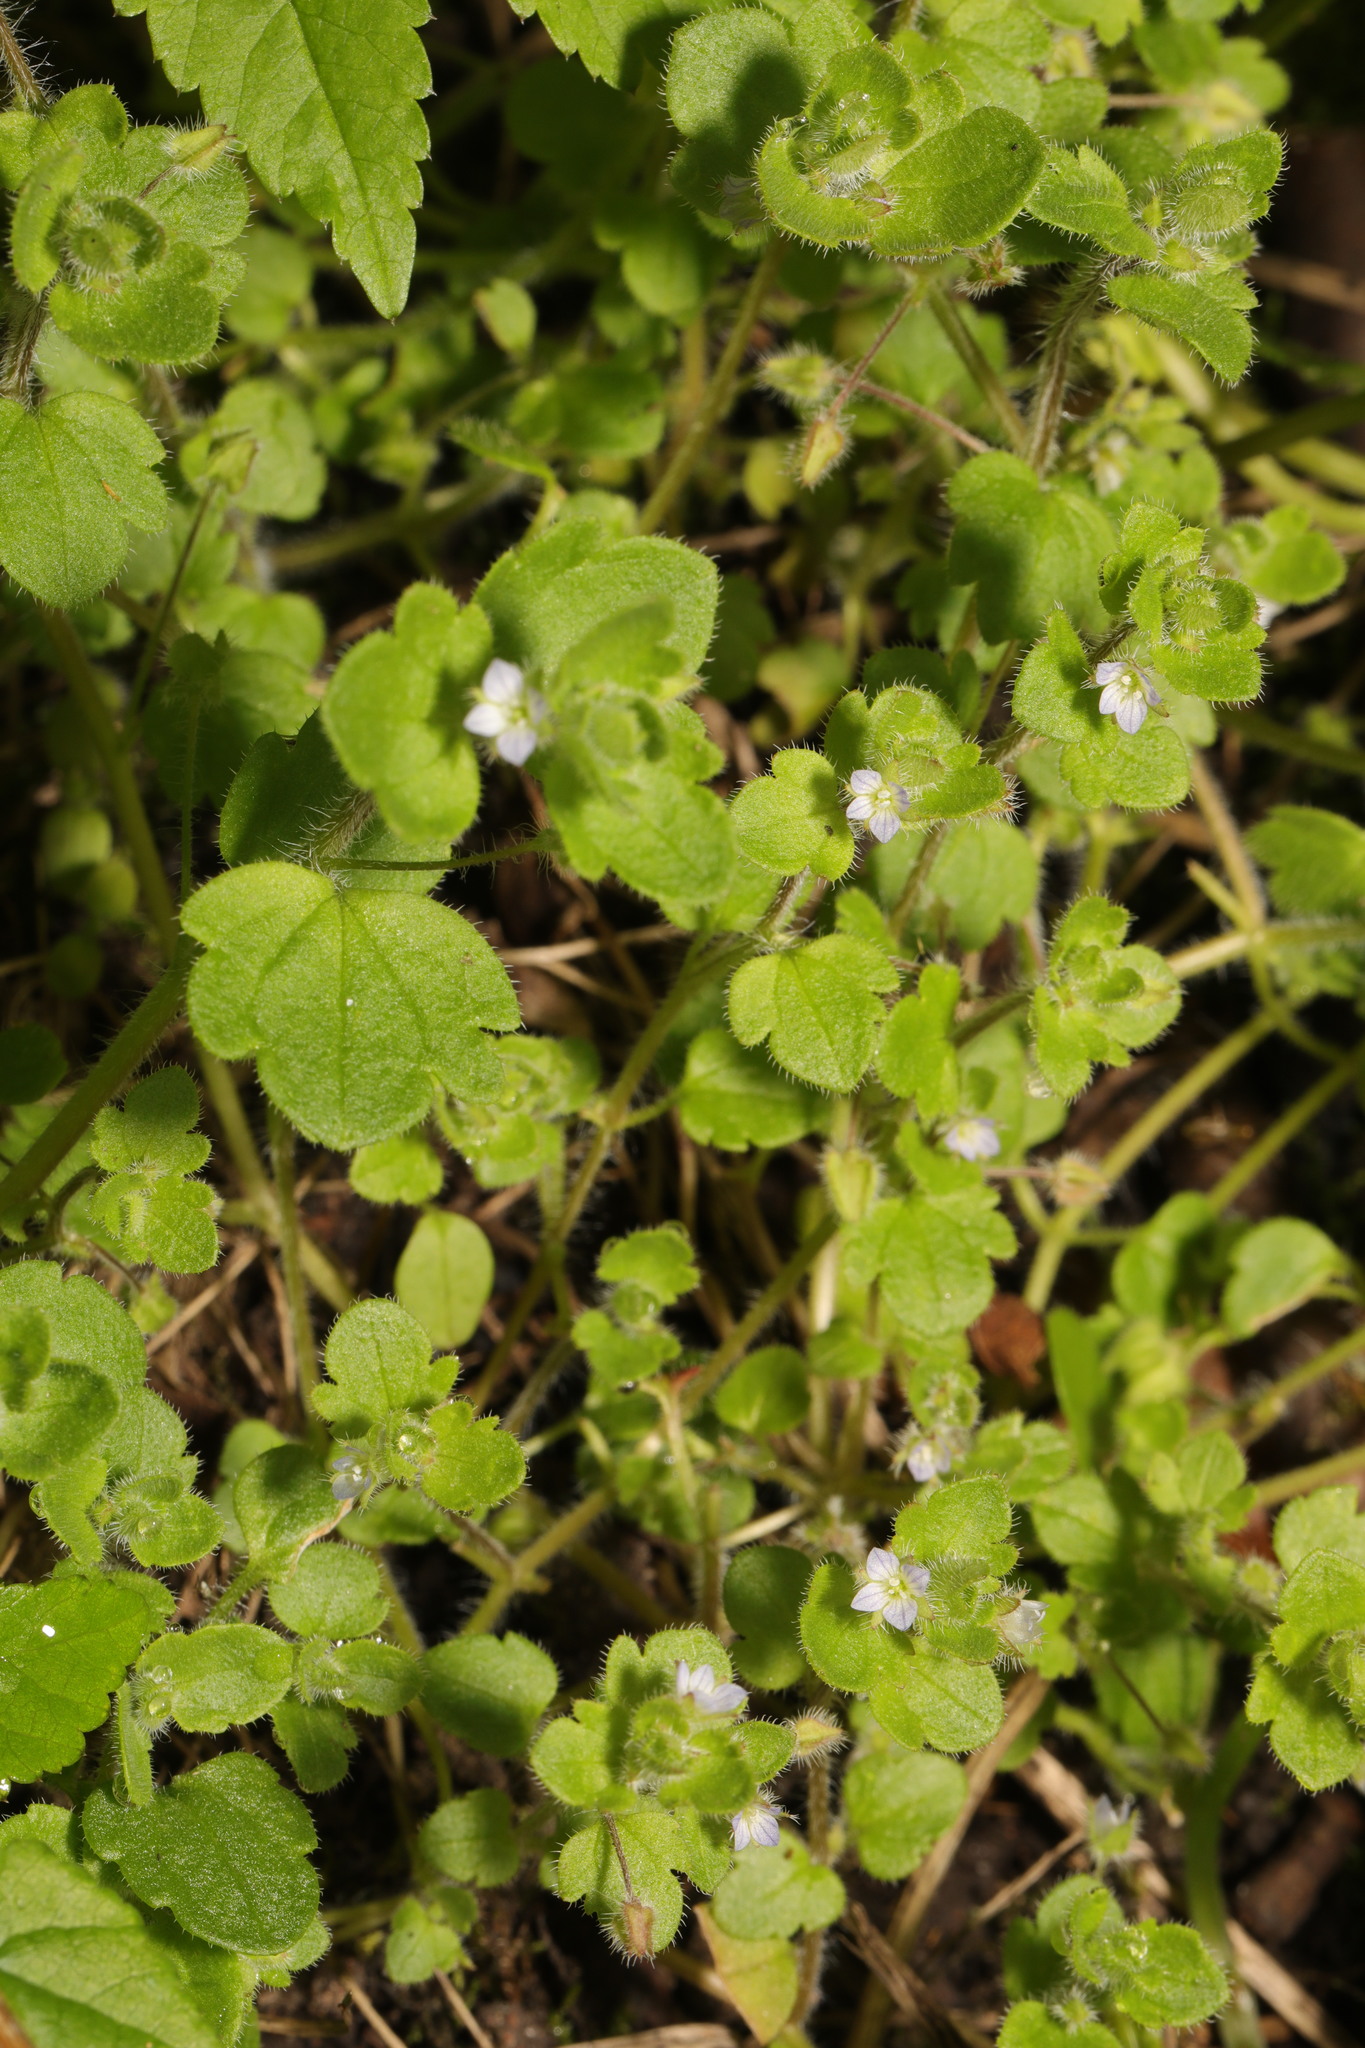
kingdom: Plantae
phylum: Tracheophyta
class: Magnoliopsida
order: Lamiales
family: Plantaginaceae
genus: Veronica
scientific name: Veronica hederifolia
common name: Ivy-leaved speedwell
